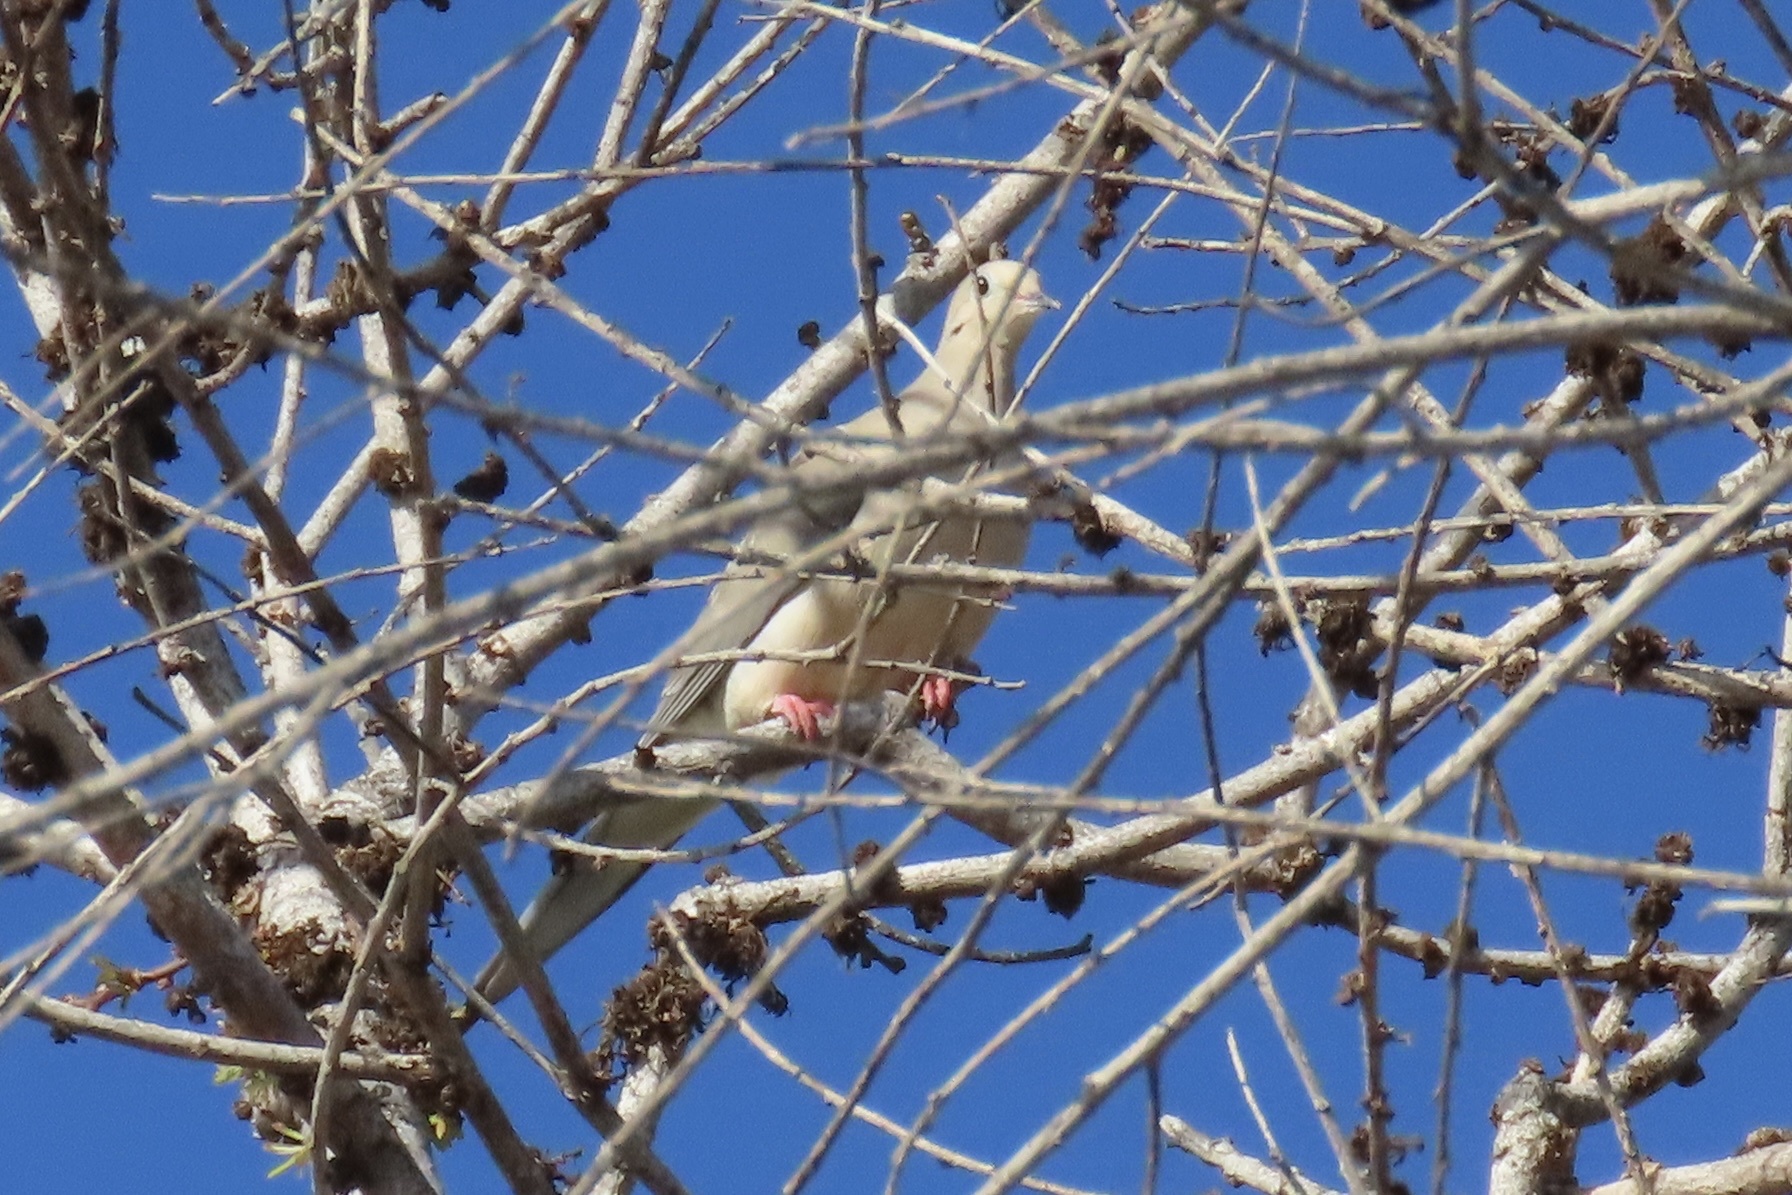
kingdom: Animalia
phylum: Chordata
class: Aves
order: Columbiformes
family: Columbidae
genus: Zenaida
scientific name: Zenaida macroura
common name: Mourning dove
